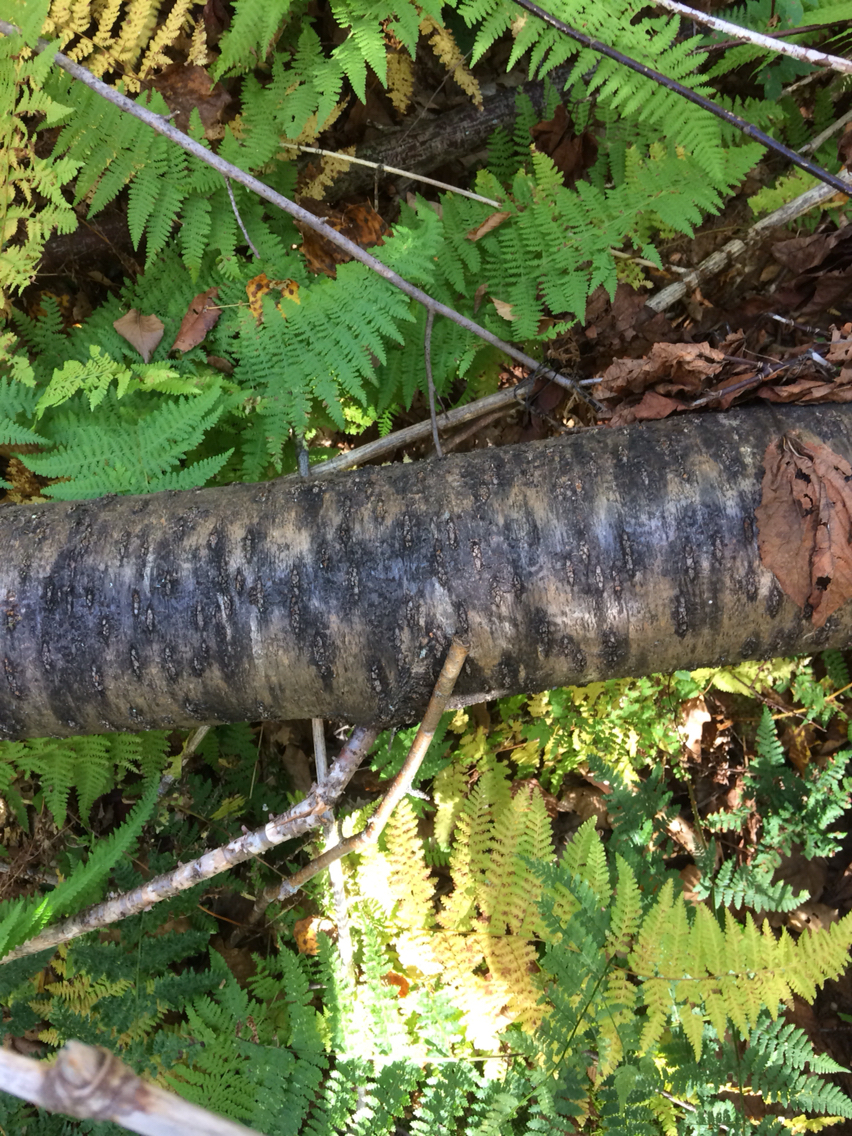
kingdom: Plantae
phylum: Tracheophyta
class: Magnoliopsida
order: Rosales
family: Rosaceae
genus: Prunus
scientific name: Prunus pensylvanica
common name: Pin cherry
